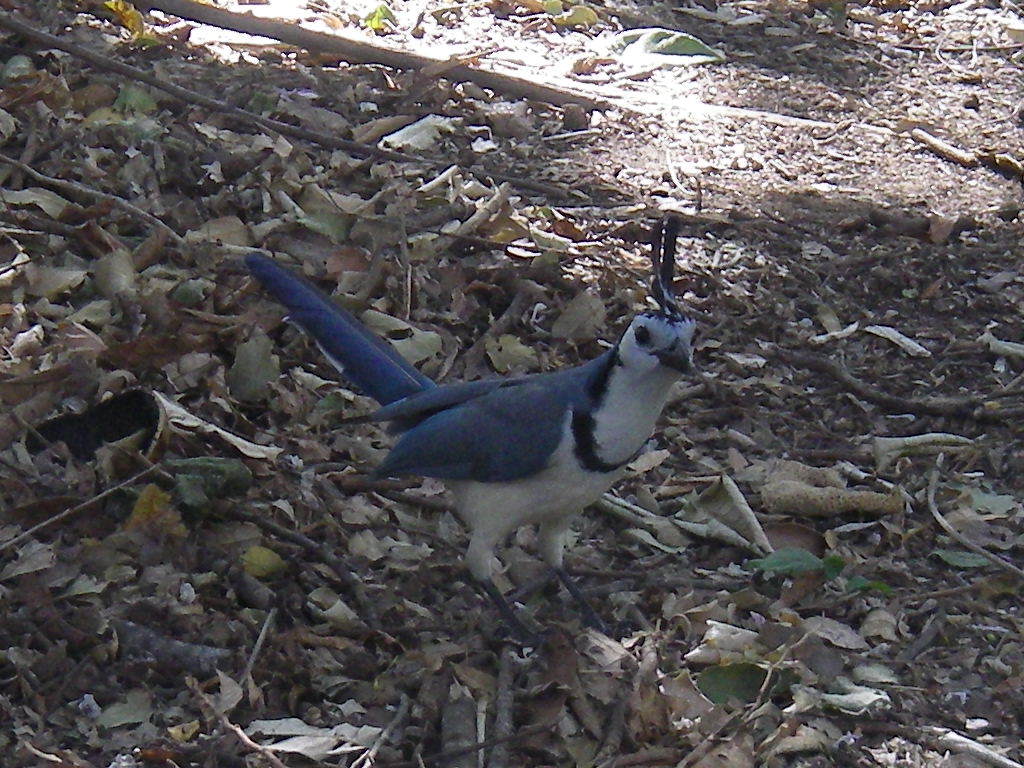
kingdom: Animalia
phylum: Chordata
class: Aves
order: Passeriformes
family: Corvidae
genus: Calocitta
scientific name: Calocitta formosa
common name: White-throated magpie-jay
